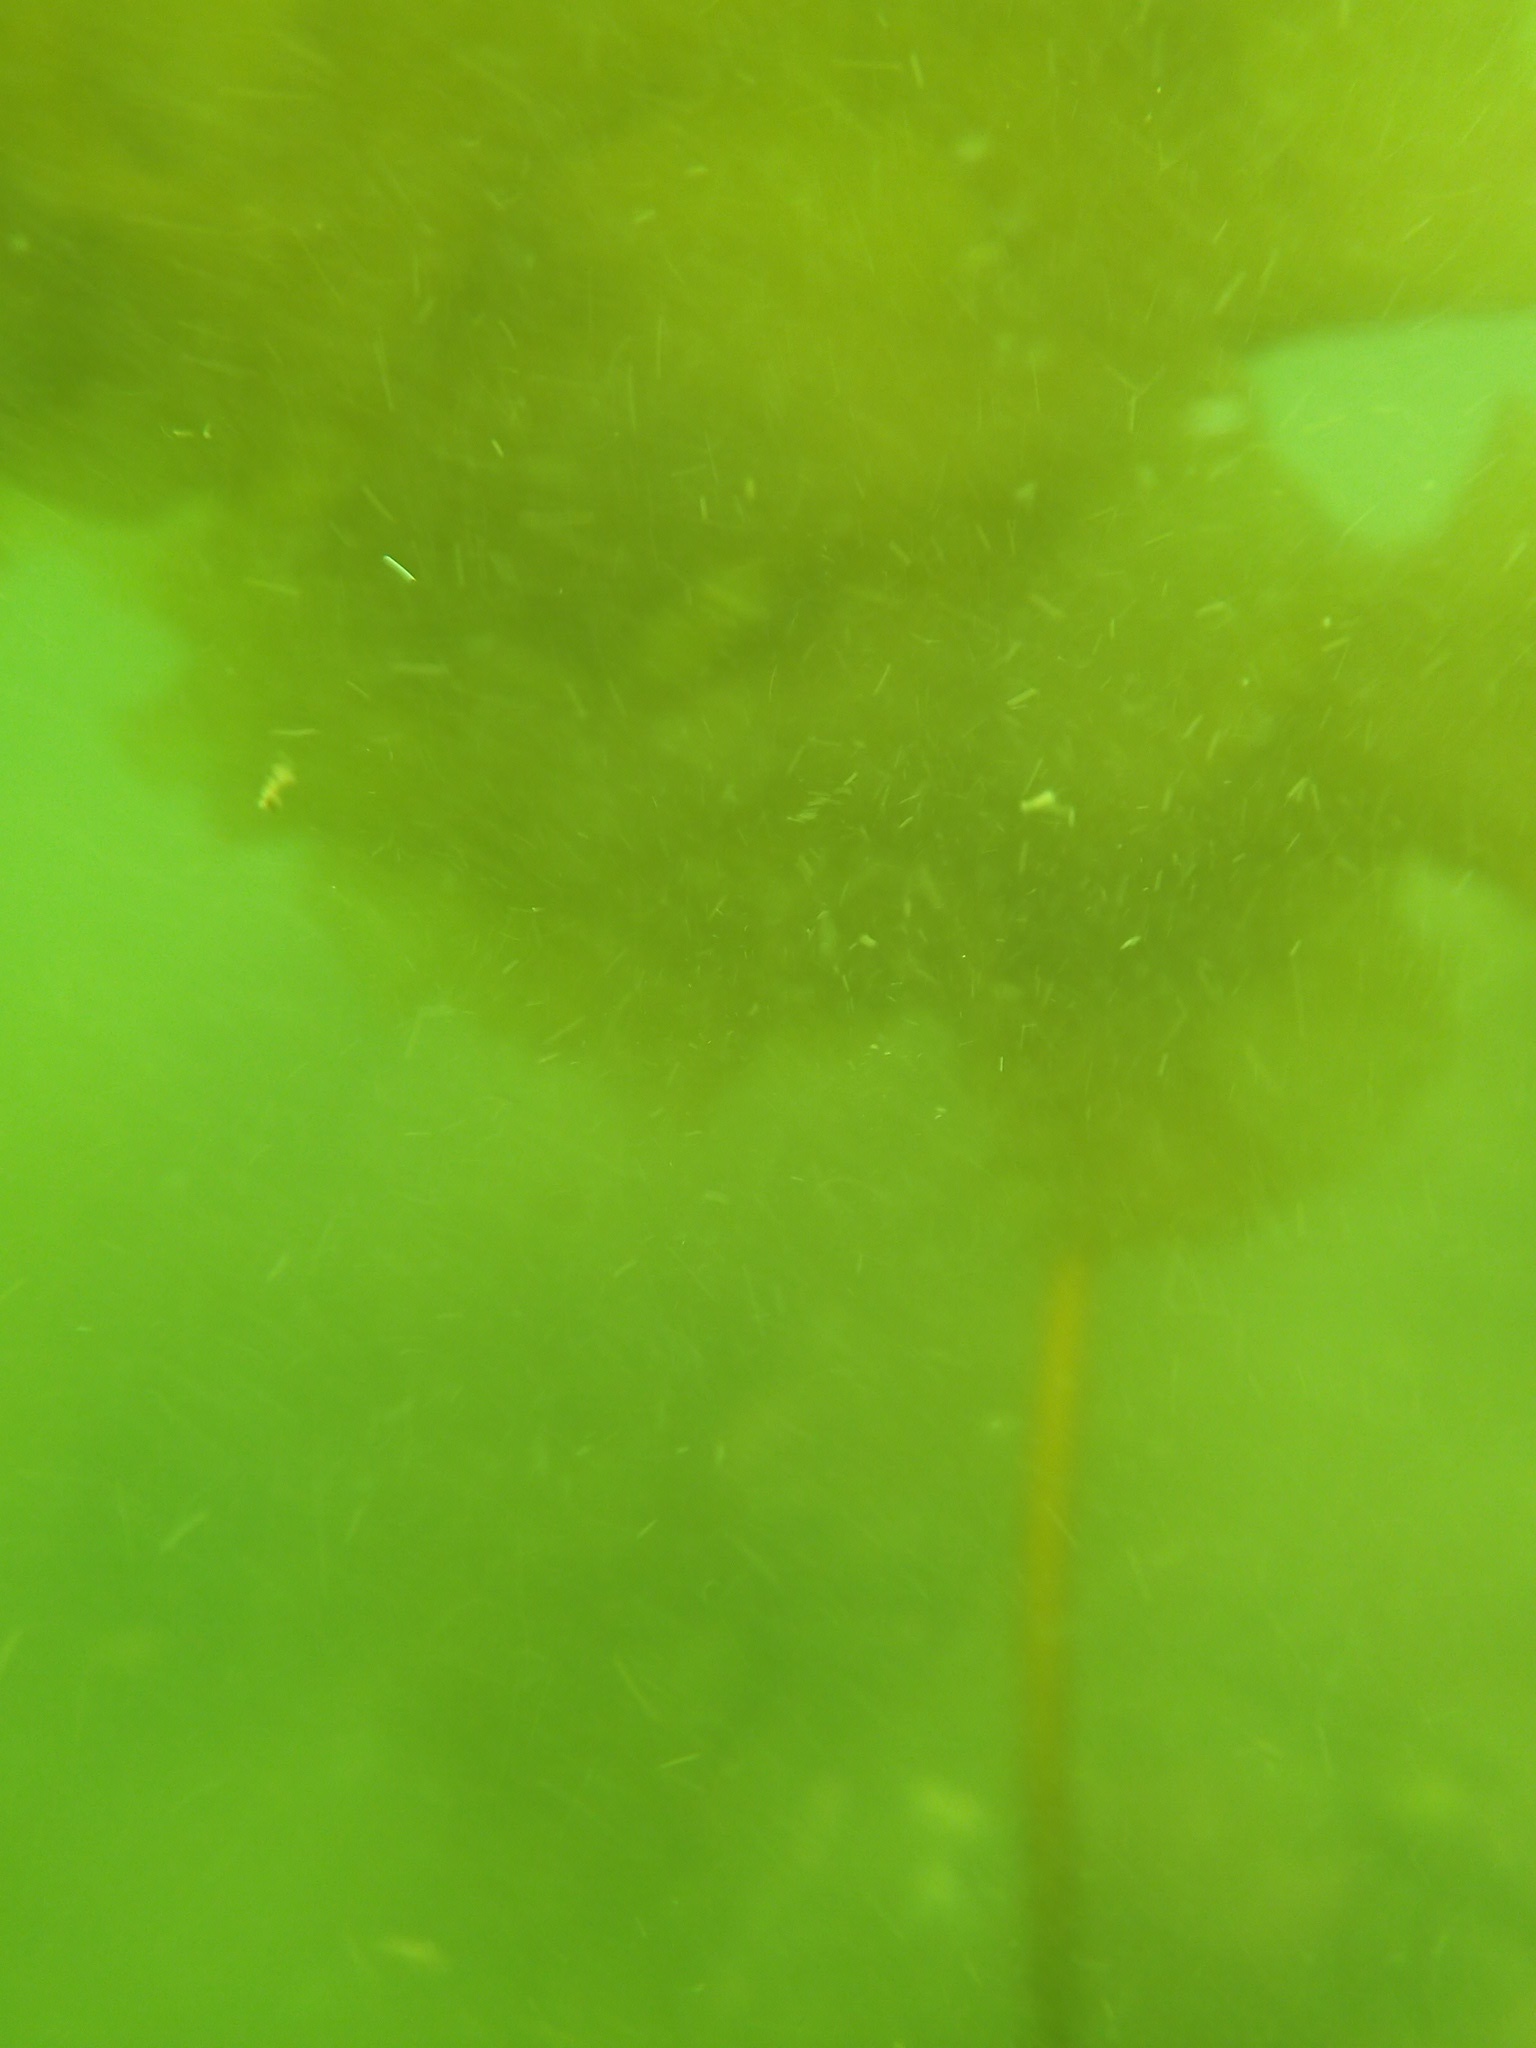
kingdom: Chromista
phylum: Ochrophyta
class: Phaeophyceae
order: Laminariales
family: Laminariaceae
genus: Saccharina
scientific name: Saccharina latissima
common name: Poor man's weather glass
